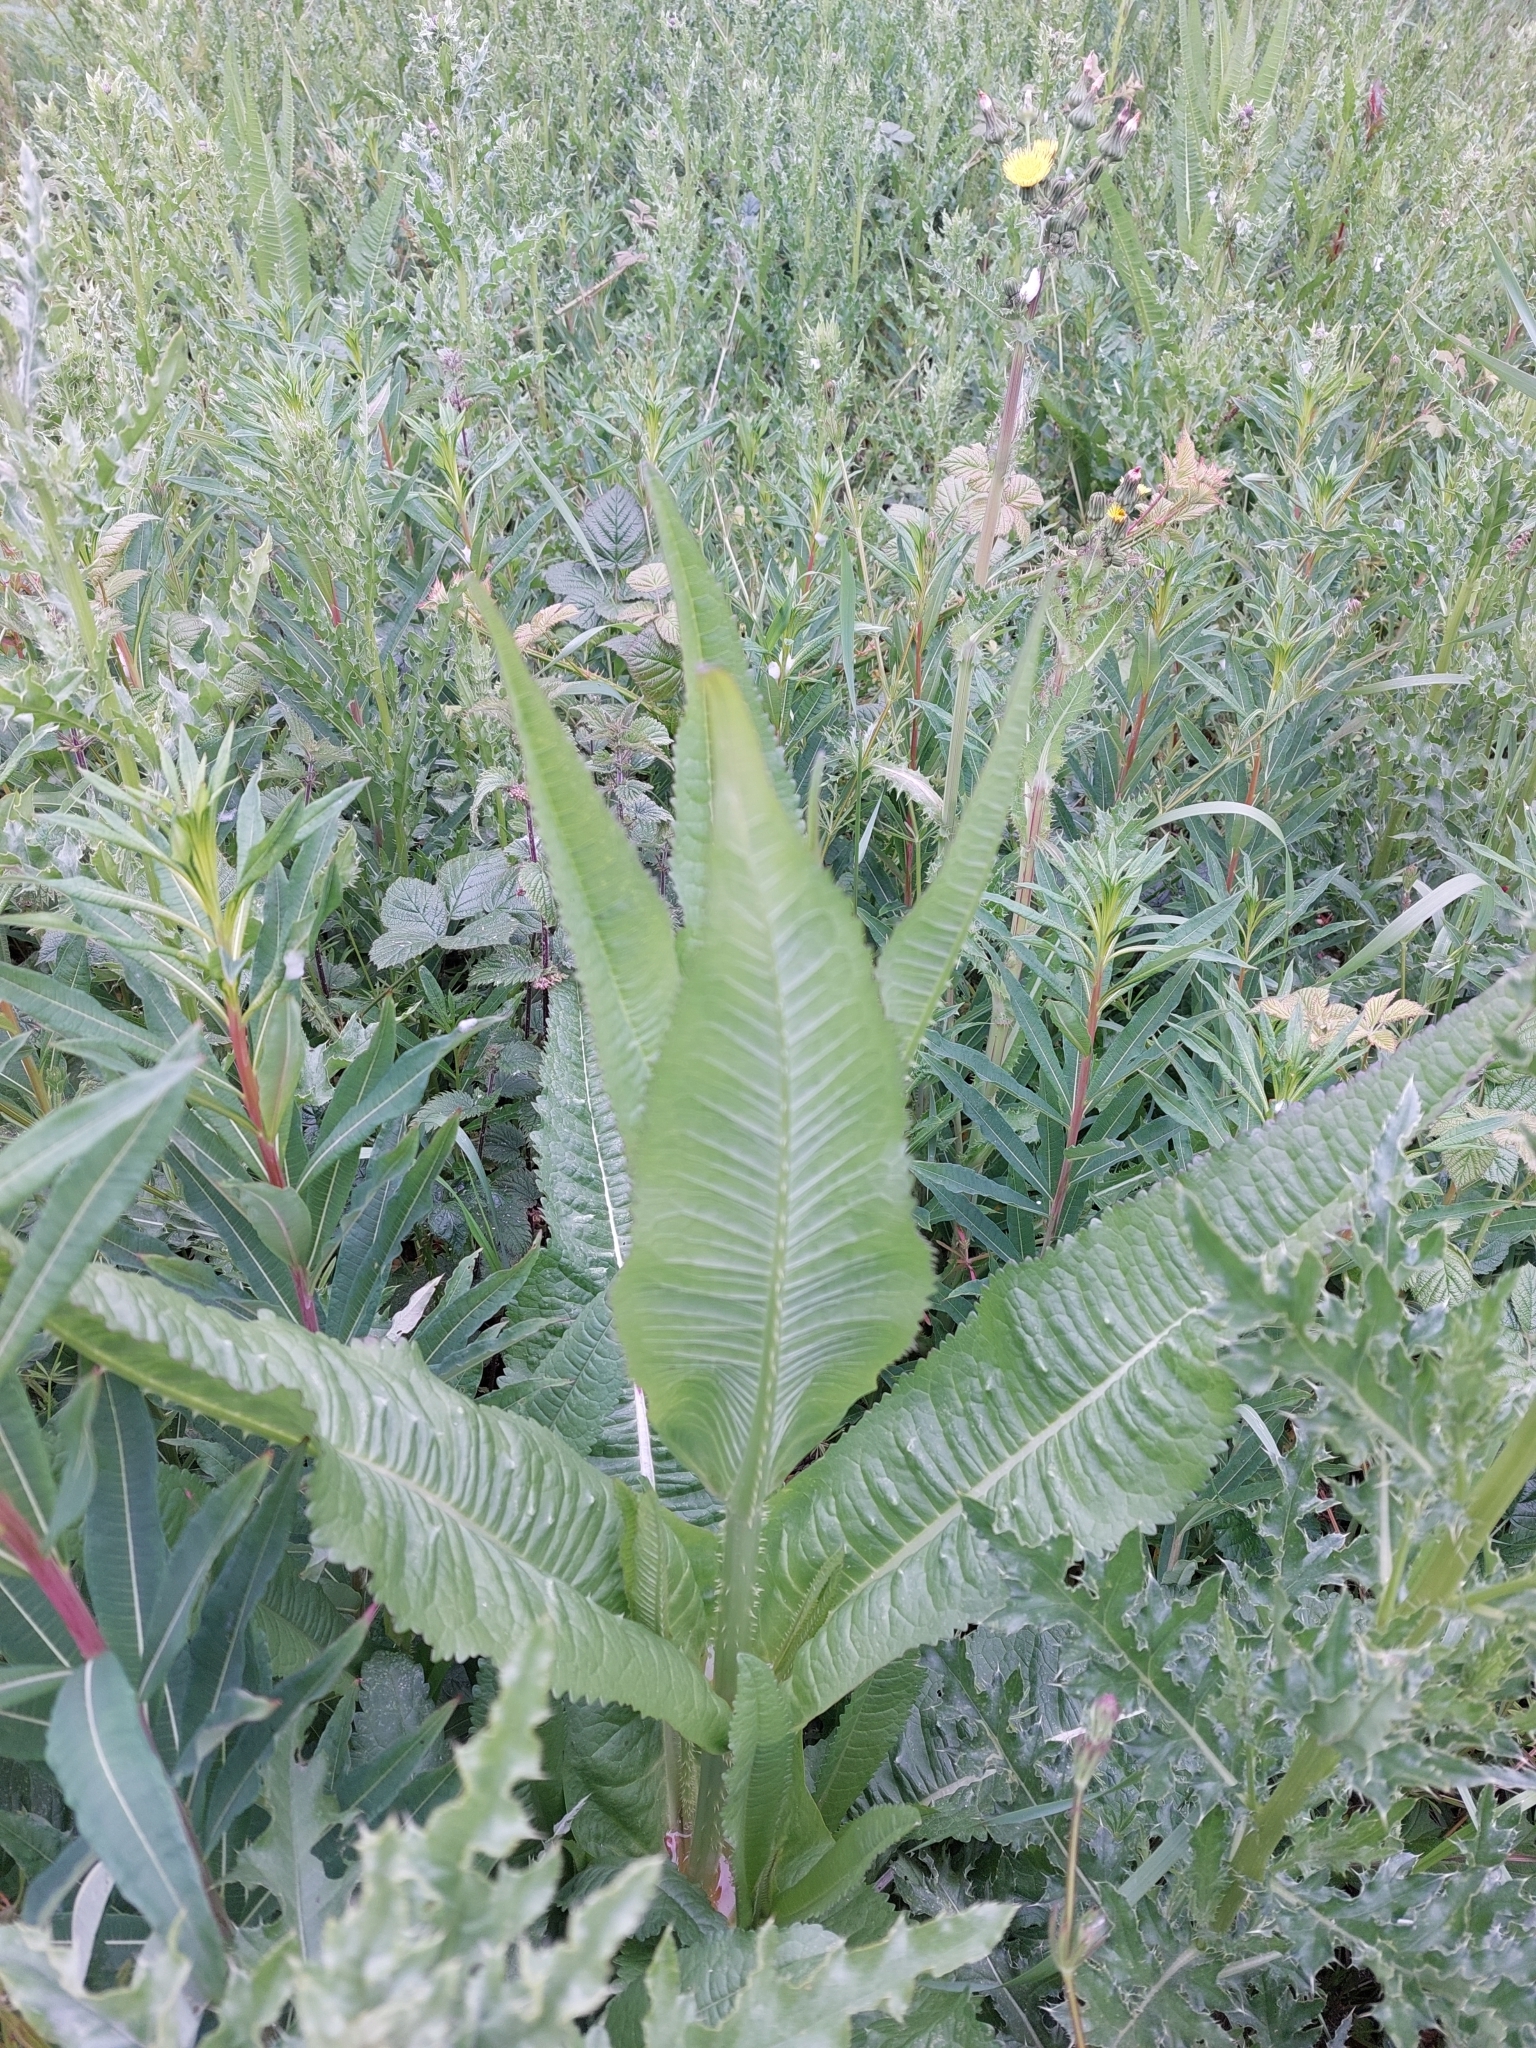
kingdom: Plantae
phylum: Tracheophyta
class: Magnoliopsida
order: Dipsacales
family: Caprifoliaceae
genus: Dipsacus
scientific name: Dipsacus fullonum
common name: Teasel
